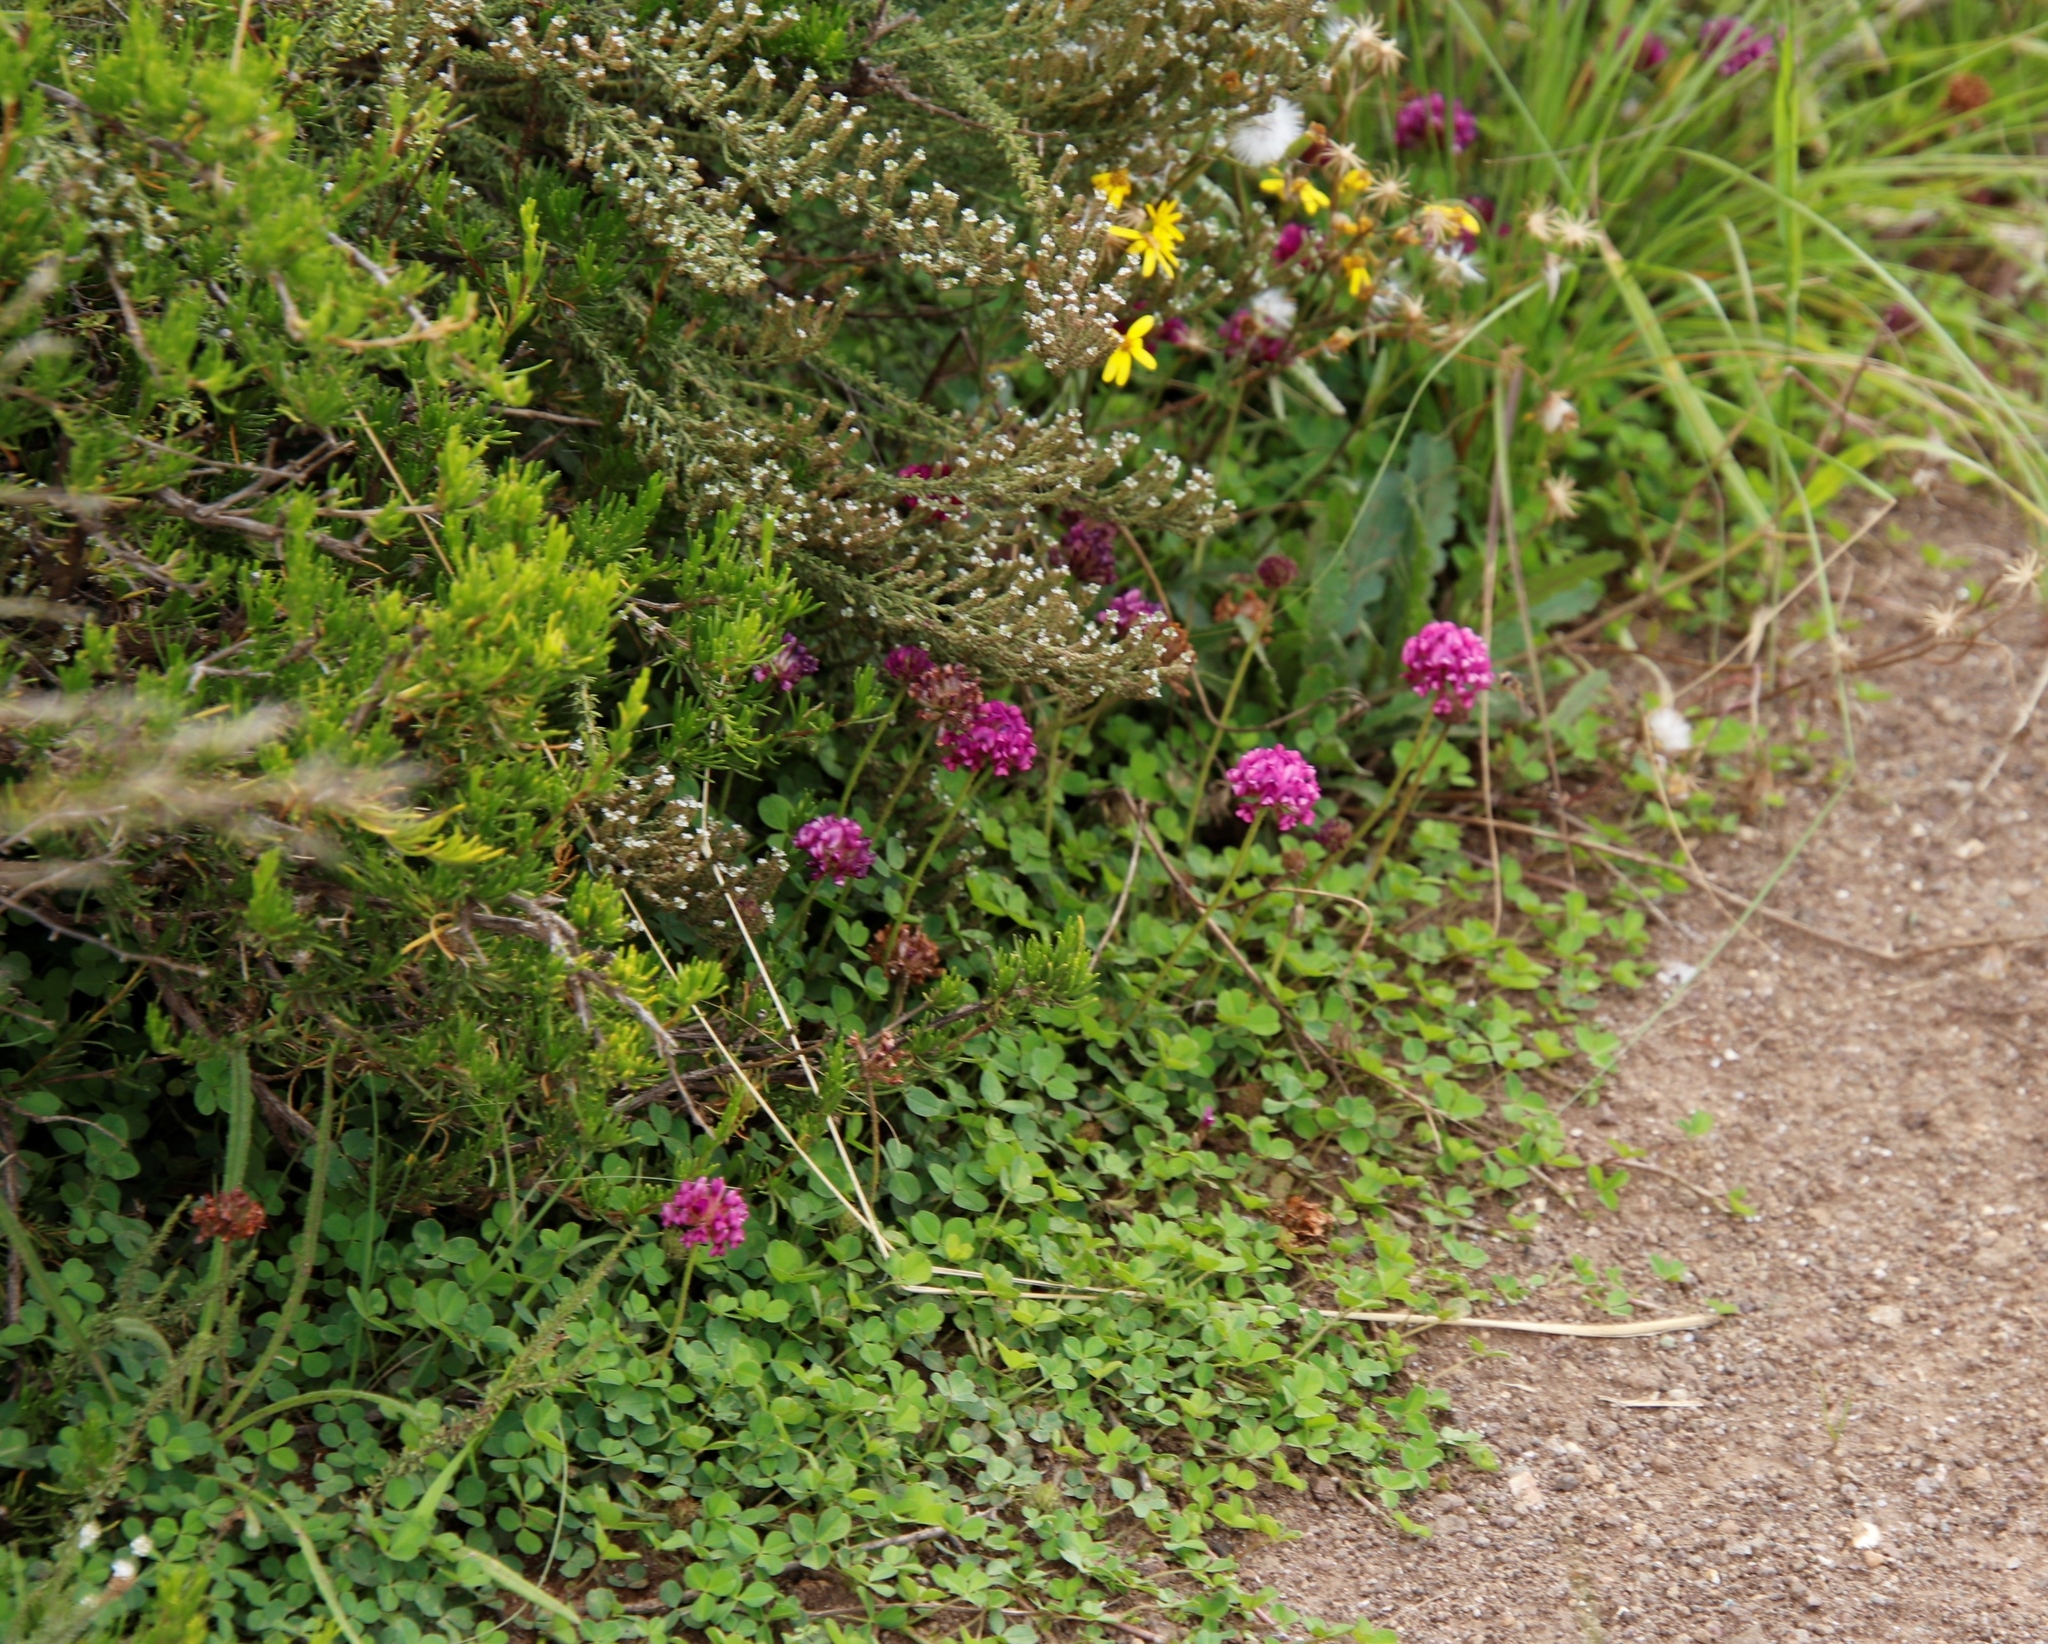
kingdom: Plantae
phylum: Tracheophyta
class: Magnoliopsida
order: Fabales
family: Fabaceae
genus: Trifolium
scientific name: Trifolium burchellianum
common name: Burchell's clover
